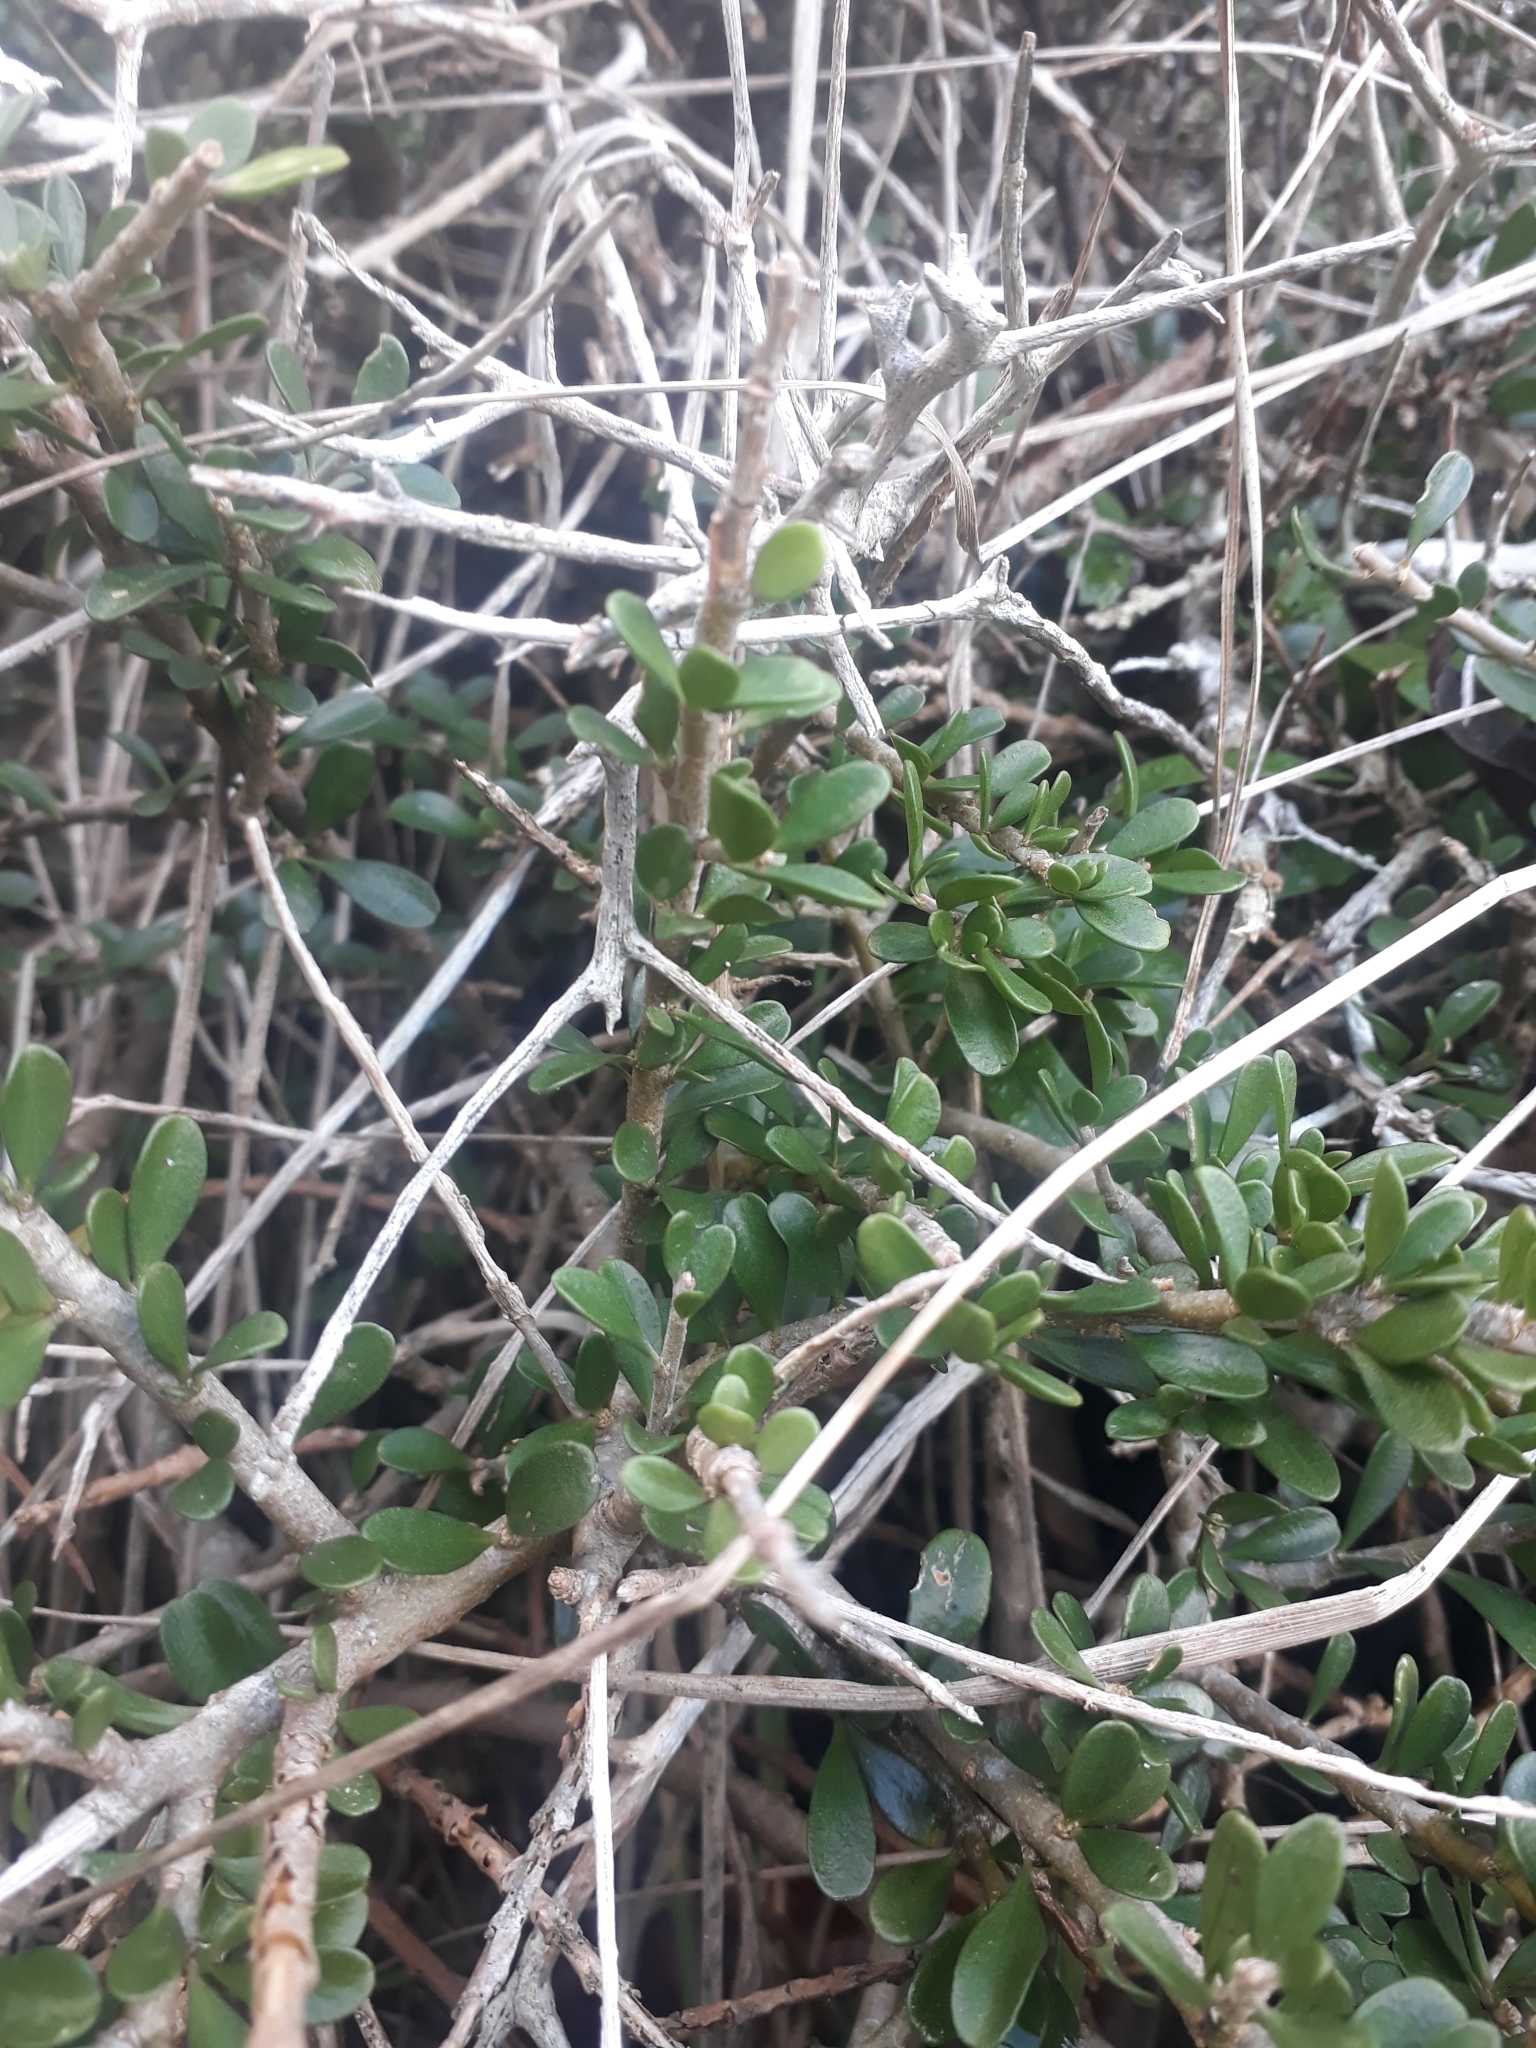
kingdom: Plantae
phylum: Tracheophyta
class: Magnoliopsida
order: Malpighiales
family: Violaceae
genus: Melicytus
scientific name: Melicytus crassifolius
